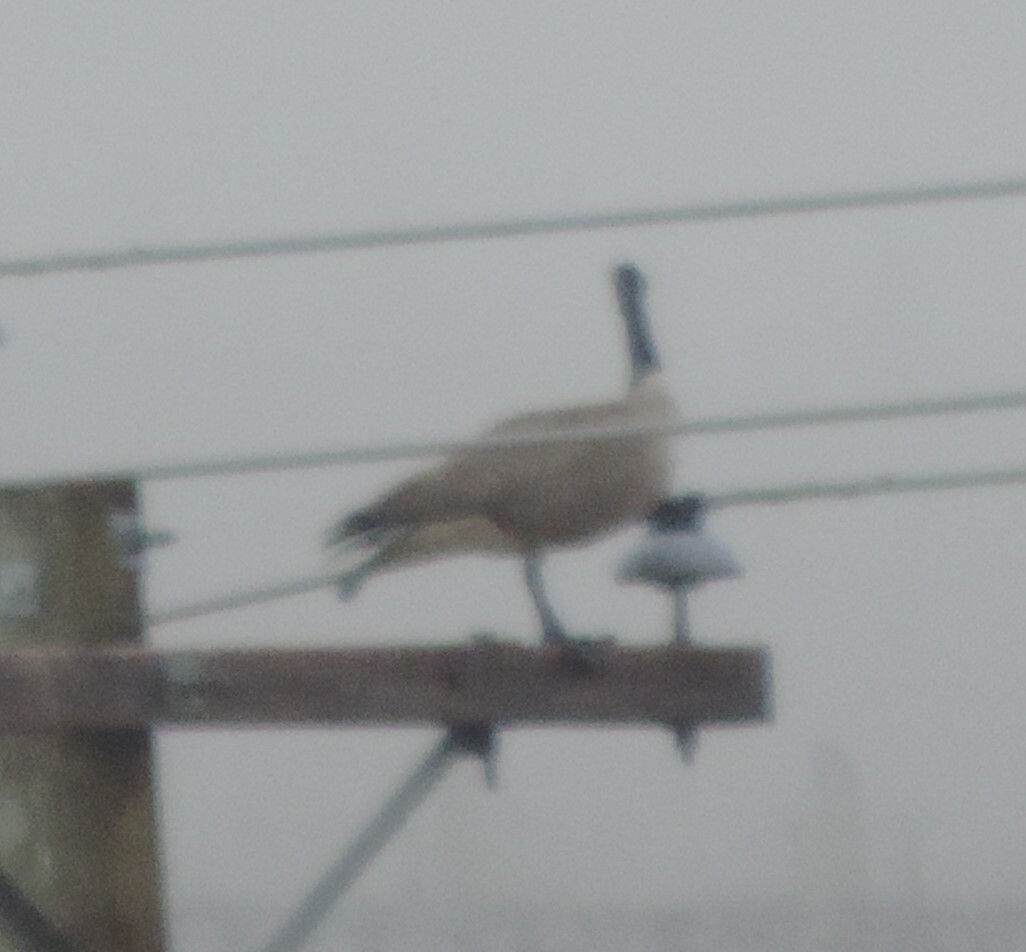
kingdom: Animalia
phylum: Chordata
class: Aves
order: Anseriformes
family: Anatidae
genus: Branta
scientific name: Branta canadensis
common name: Canada goose
